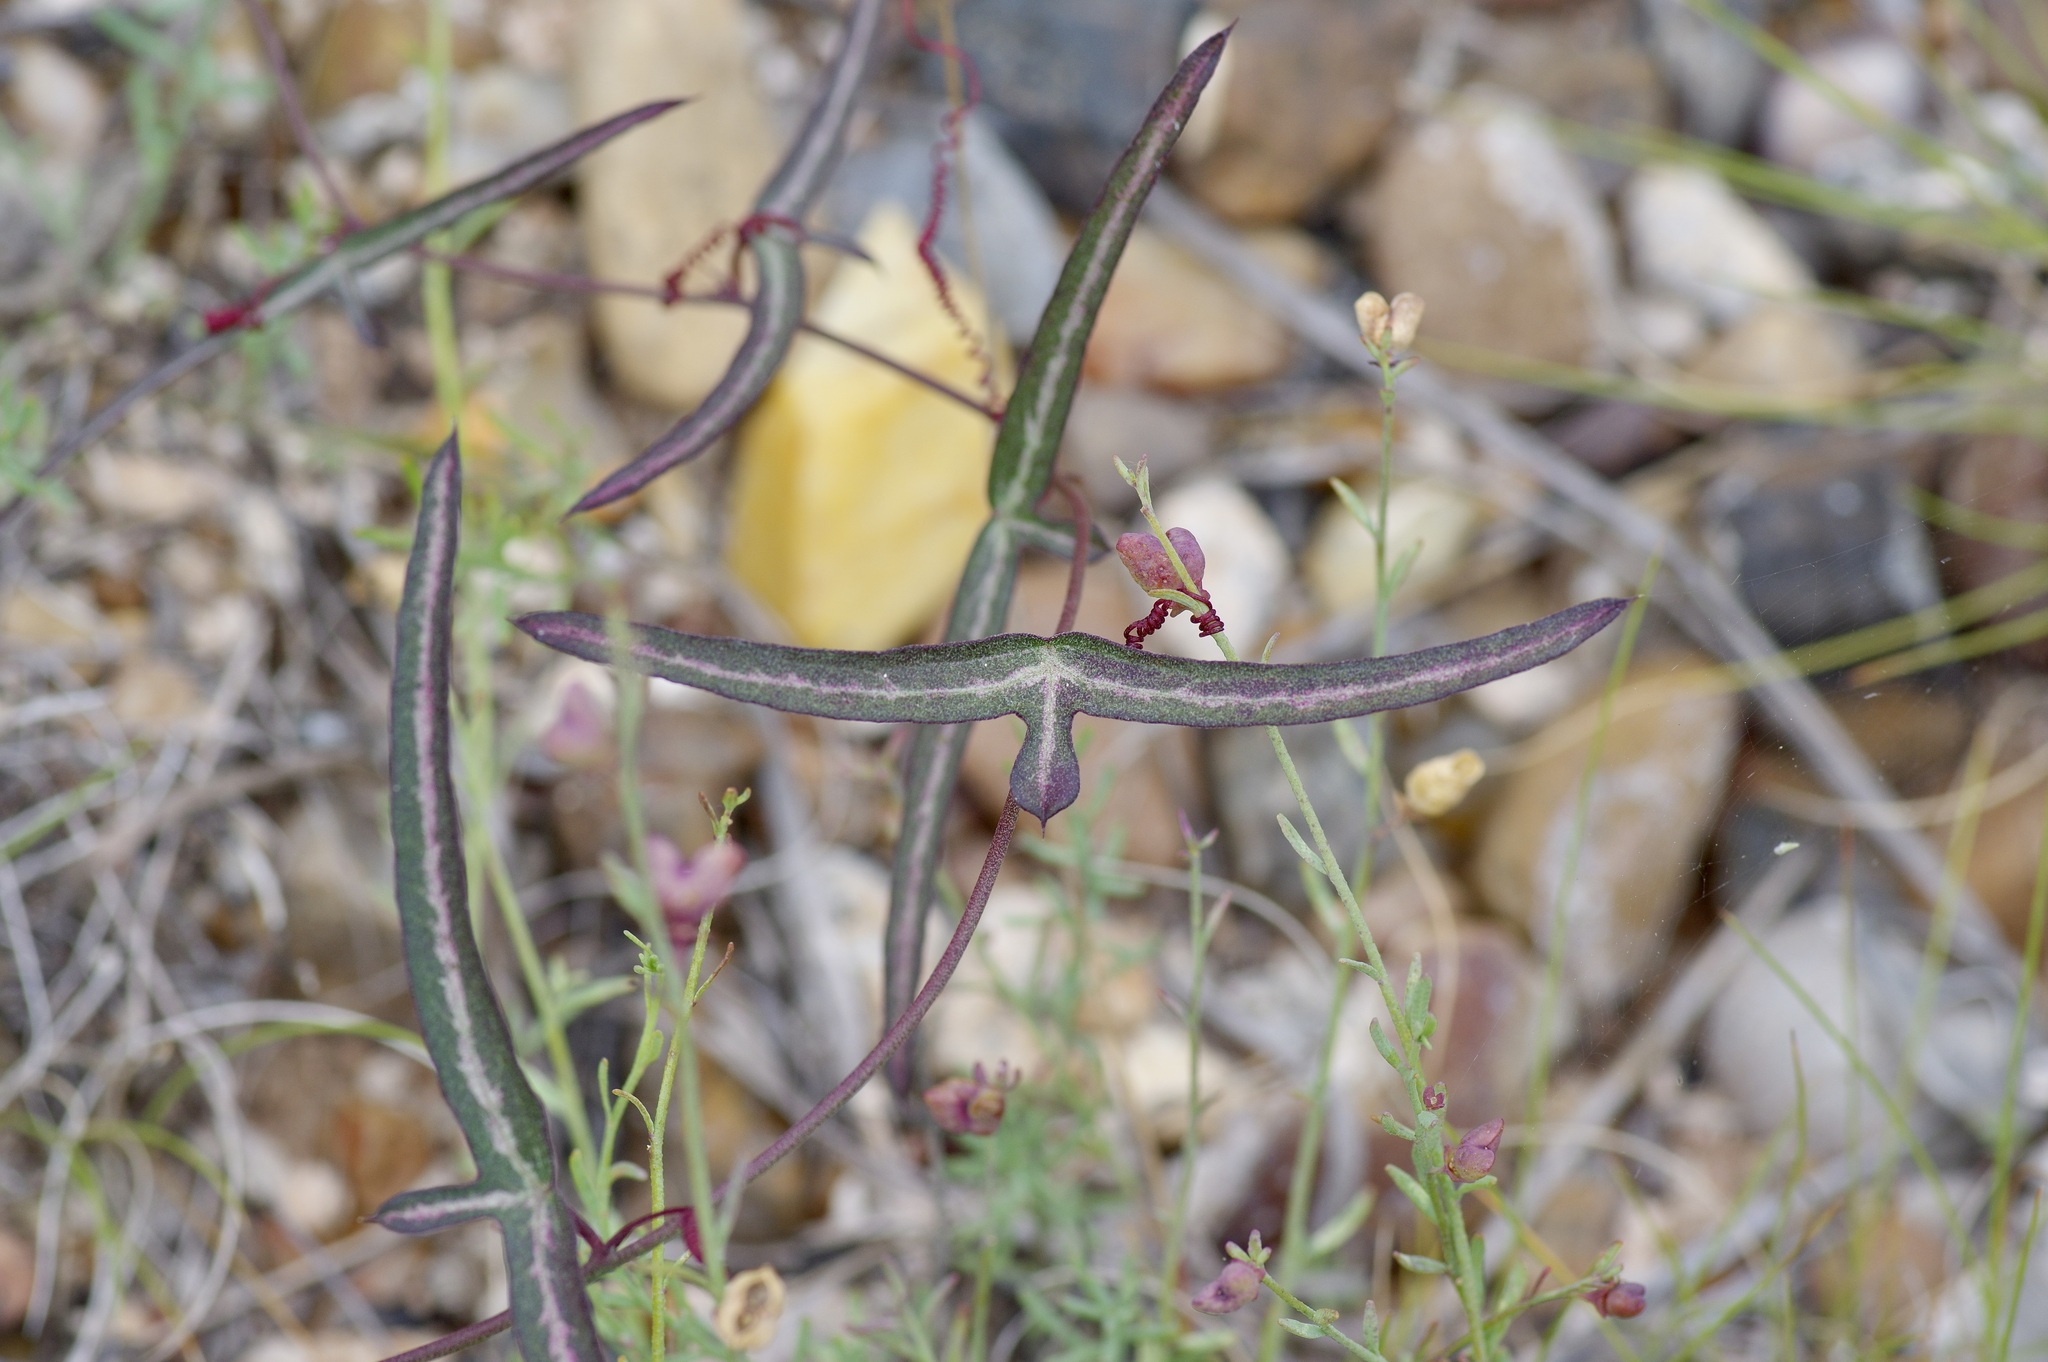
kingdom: Plantae
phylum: Tracheophyta
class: Magnoliopsida
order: Malpighiales
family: Passifloraceae
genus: Passiflora
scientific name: Passiflora tenuiloba
